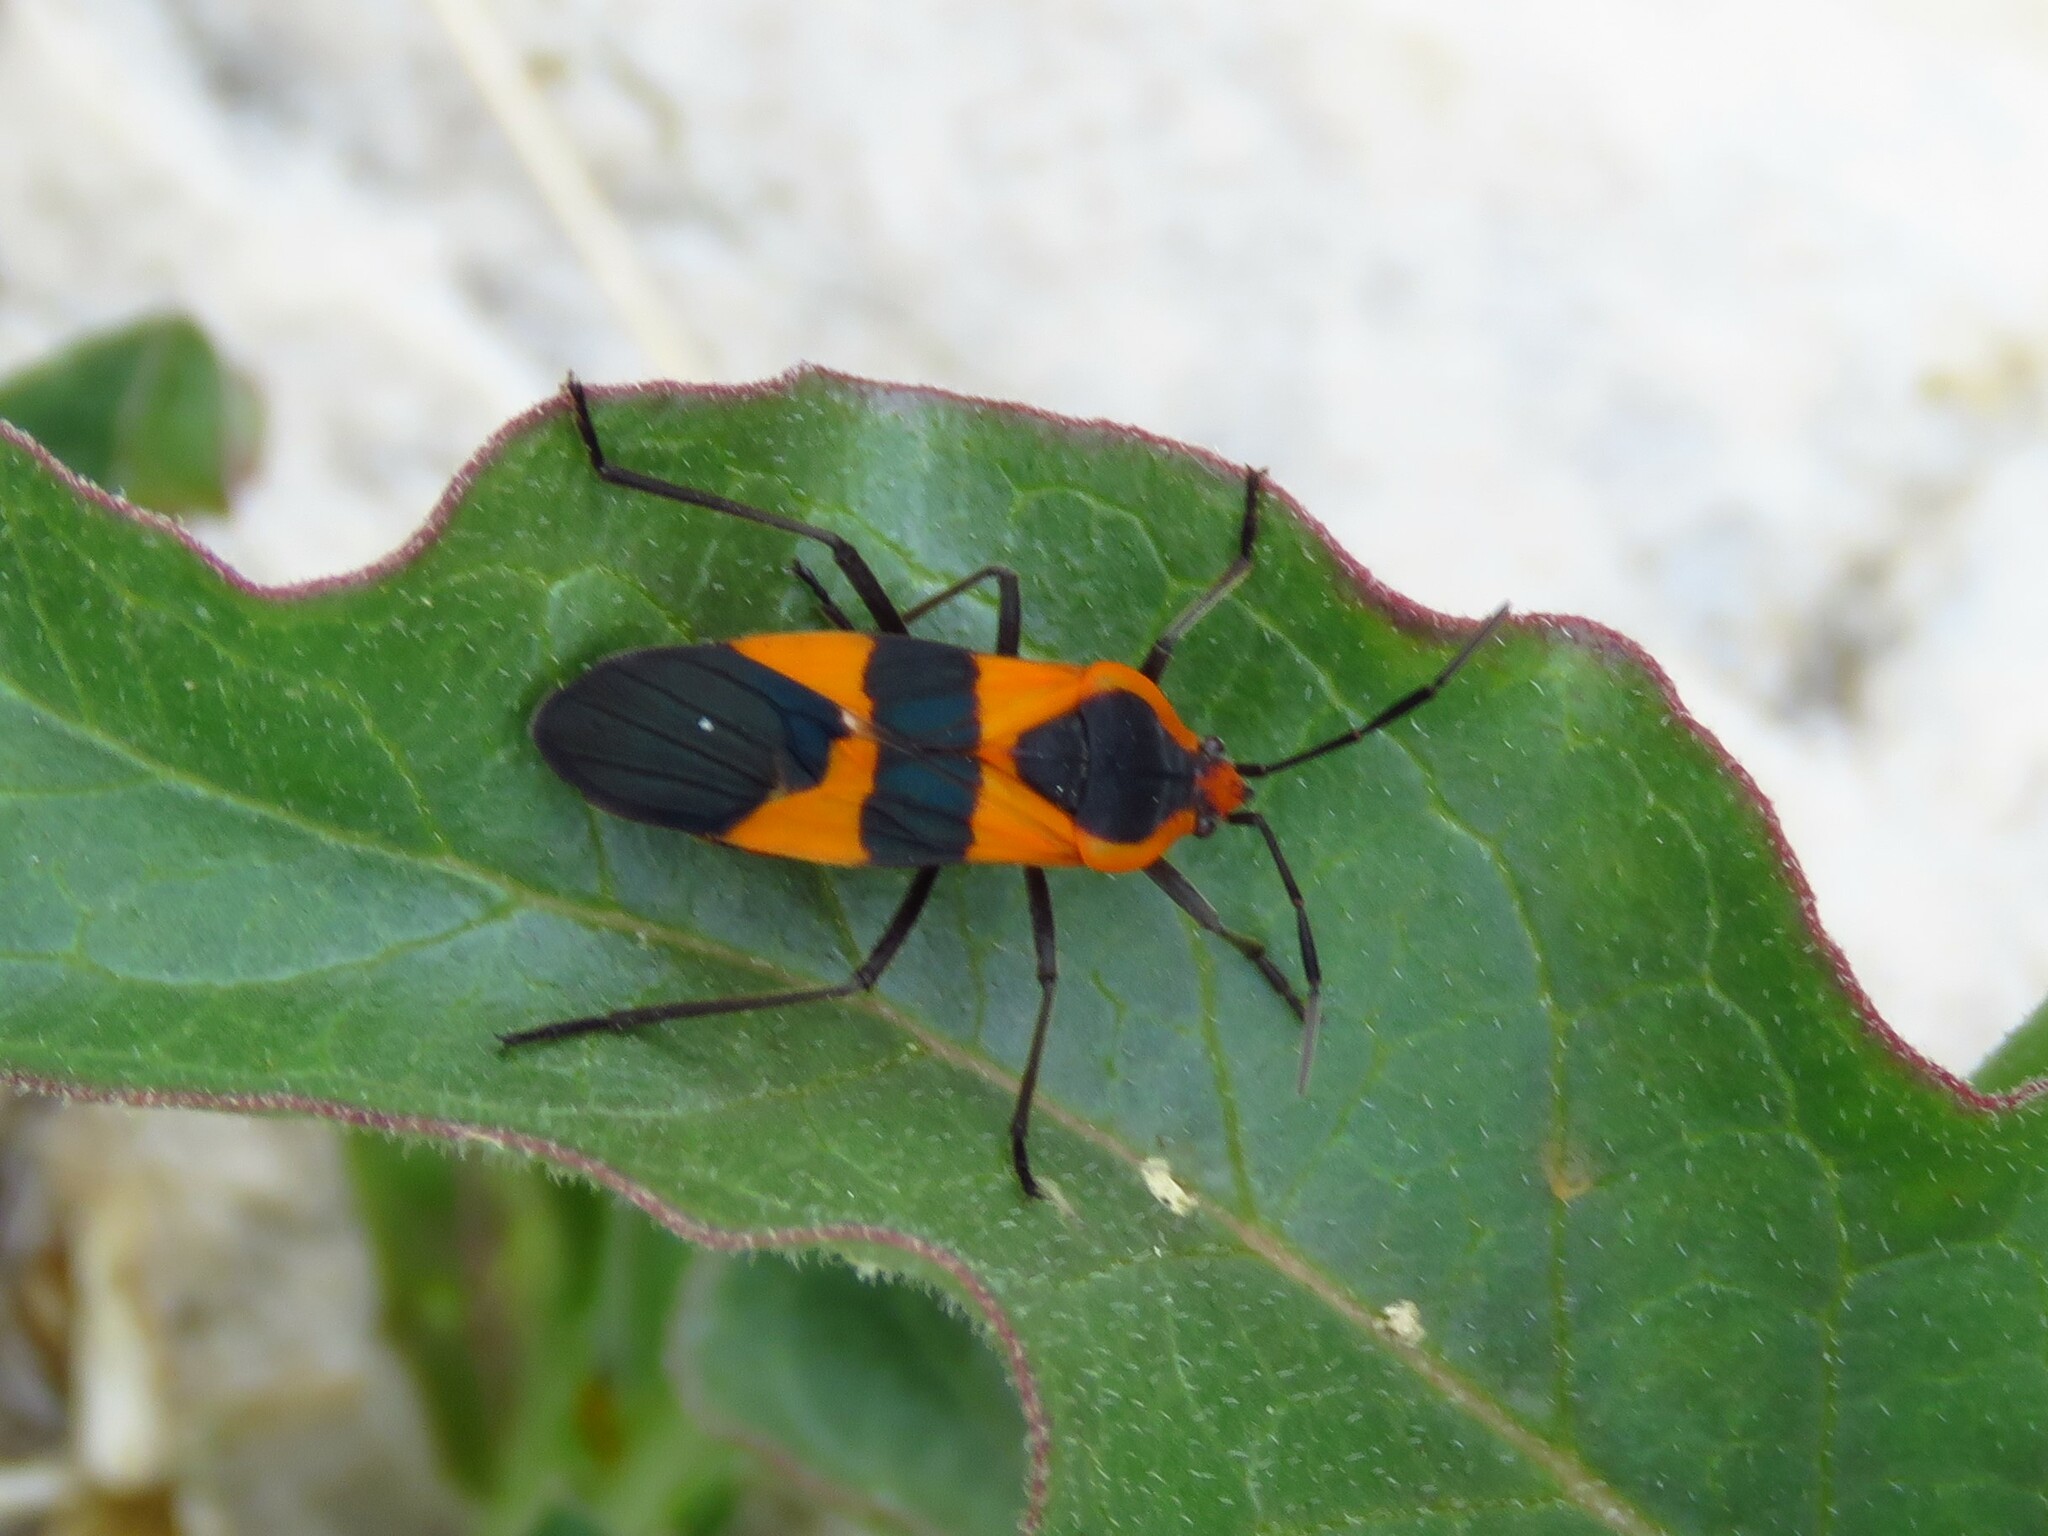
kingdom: Animalia
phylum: Arthropoda
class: Insecta
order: Hemiptera
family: Lygaeidae
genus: Oncopeltus
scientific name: Oncopeltus fasciatus
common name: Large milkweed bug
